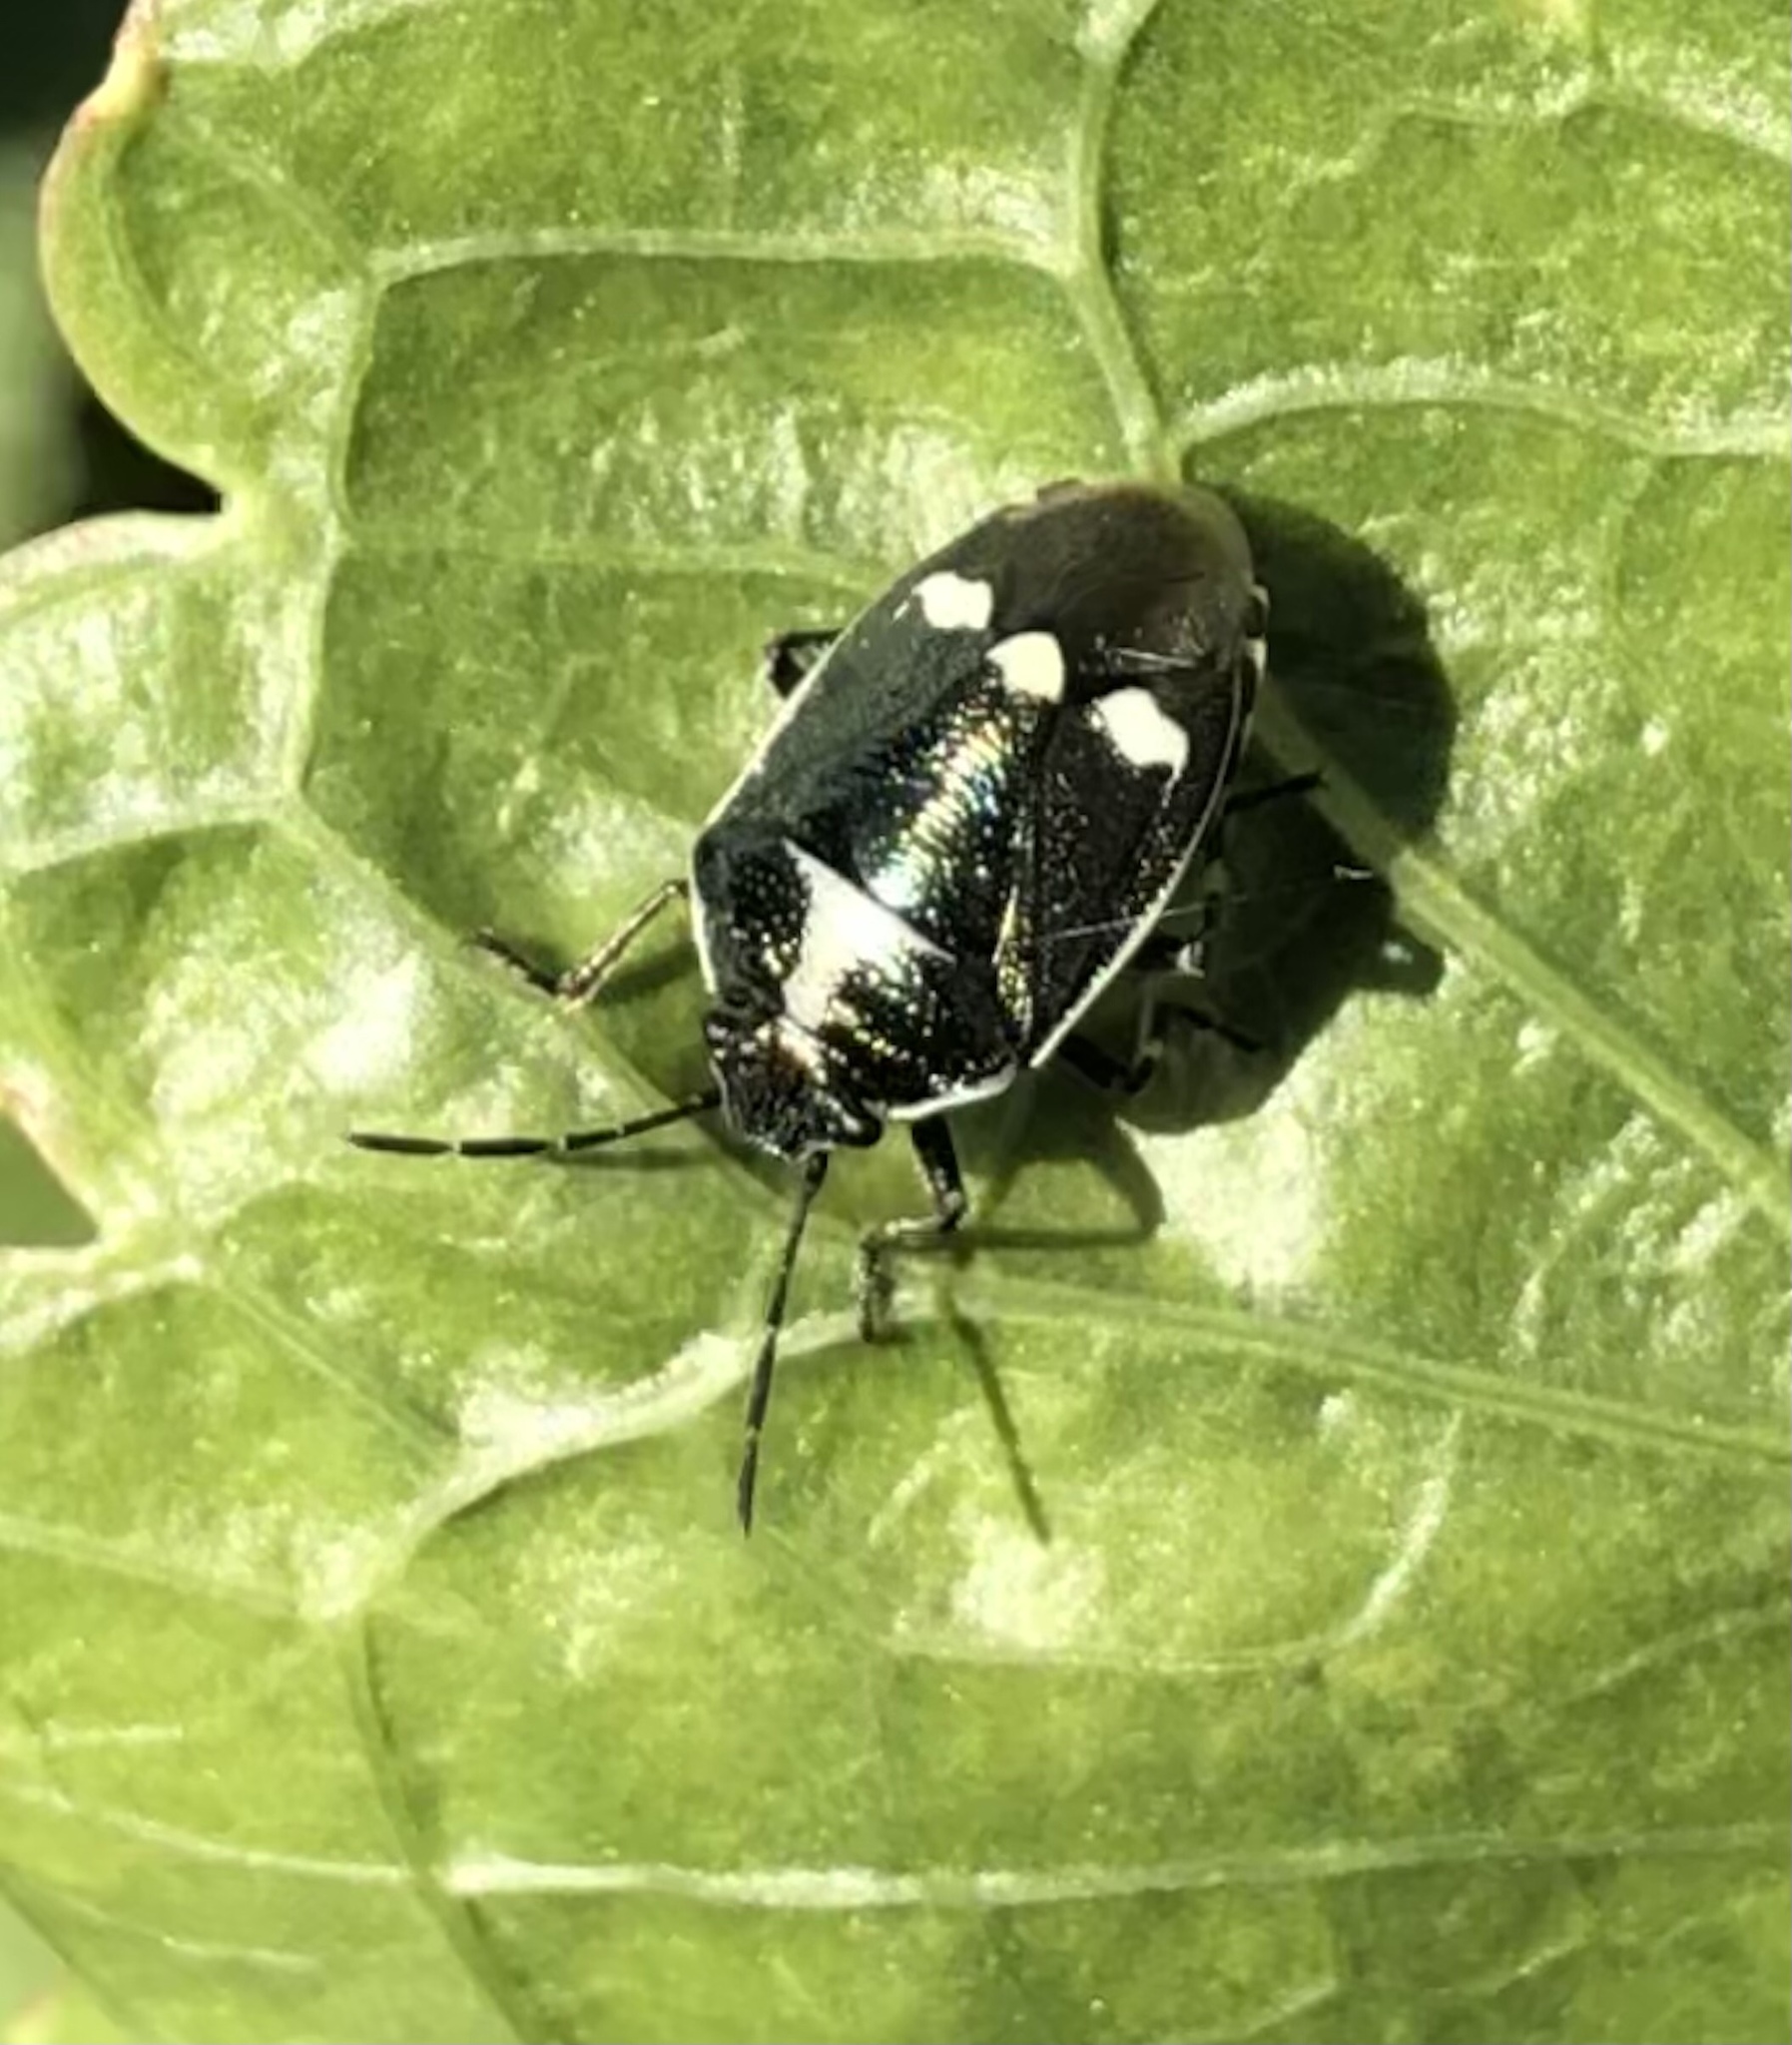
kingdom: Animalia
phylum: Arthropoda
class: Insecta
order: Hemiptera
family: Pentatomidae
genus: Eurydema
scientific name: Eurydema oleracea
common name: Cabbage bug
